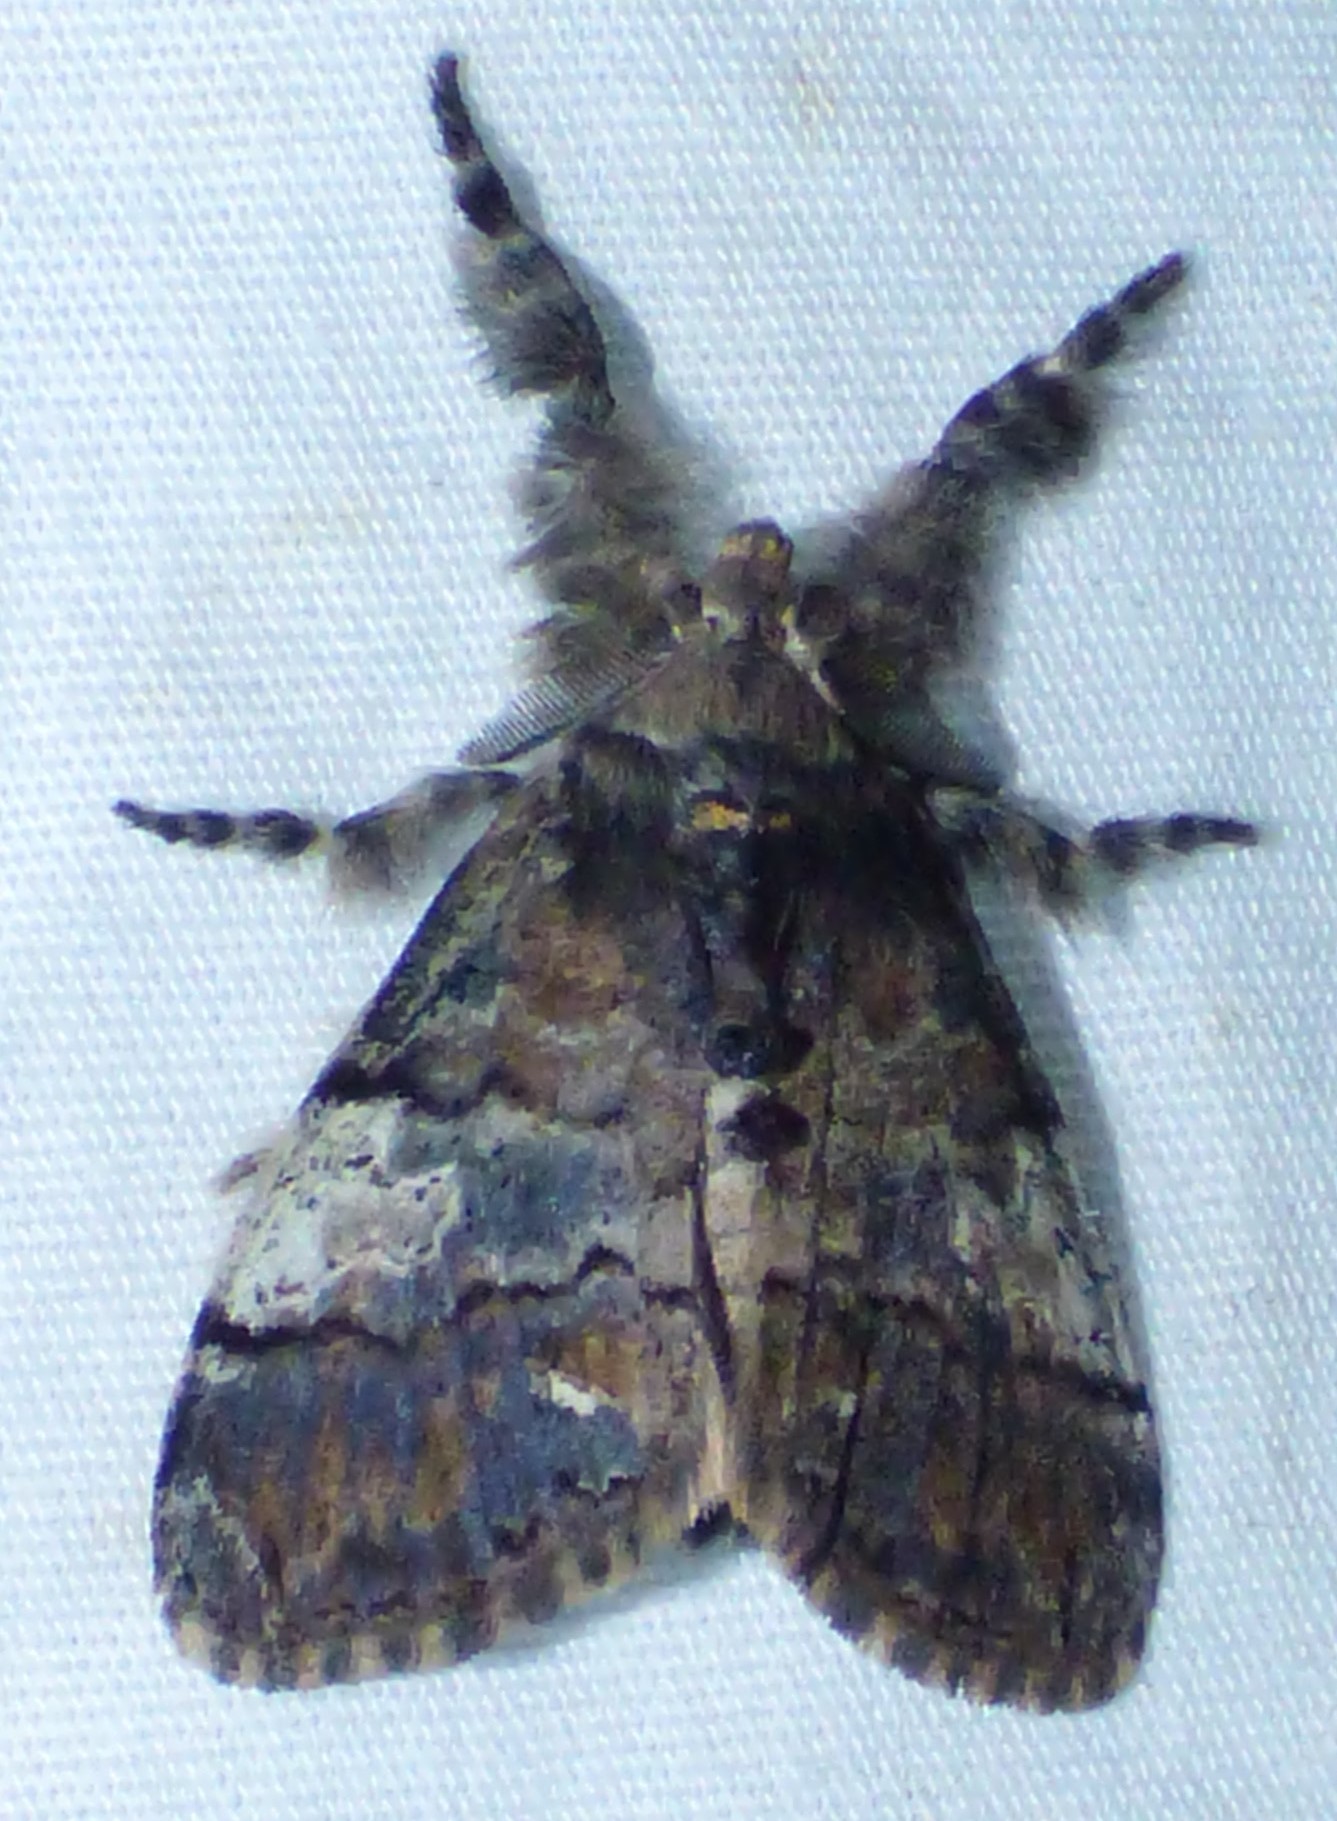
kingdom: Animalia
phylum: Arthropoda
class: Insecta
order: Lepidoptera
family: Erebidae
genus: Dasychira
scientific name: Dasychira meridionalis
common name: Southern tussock moth
